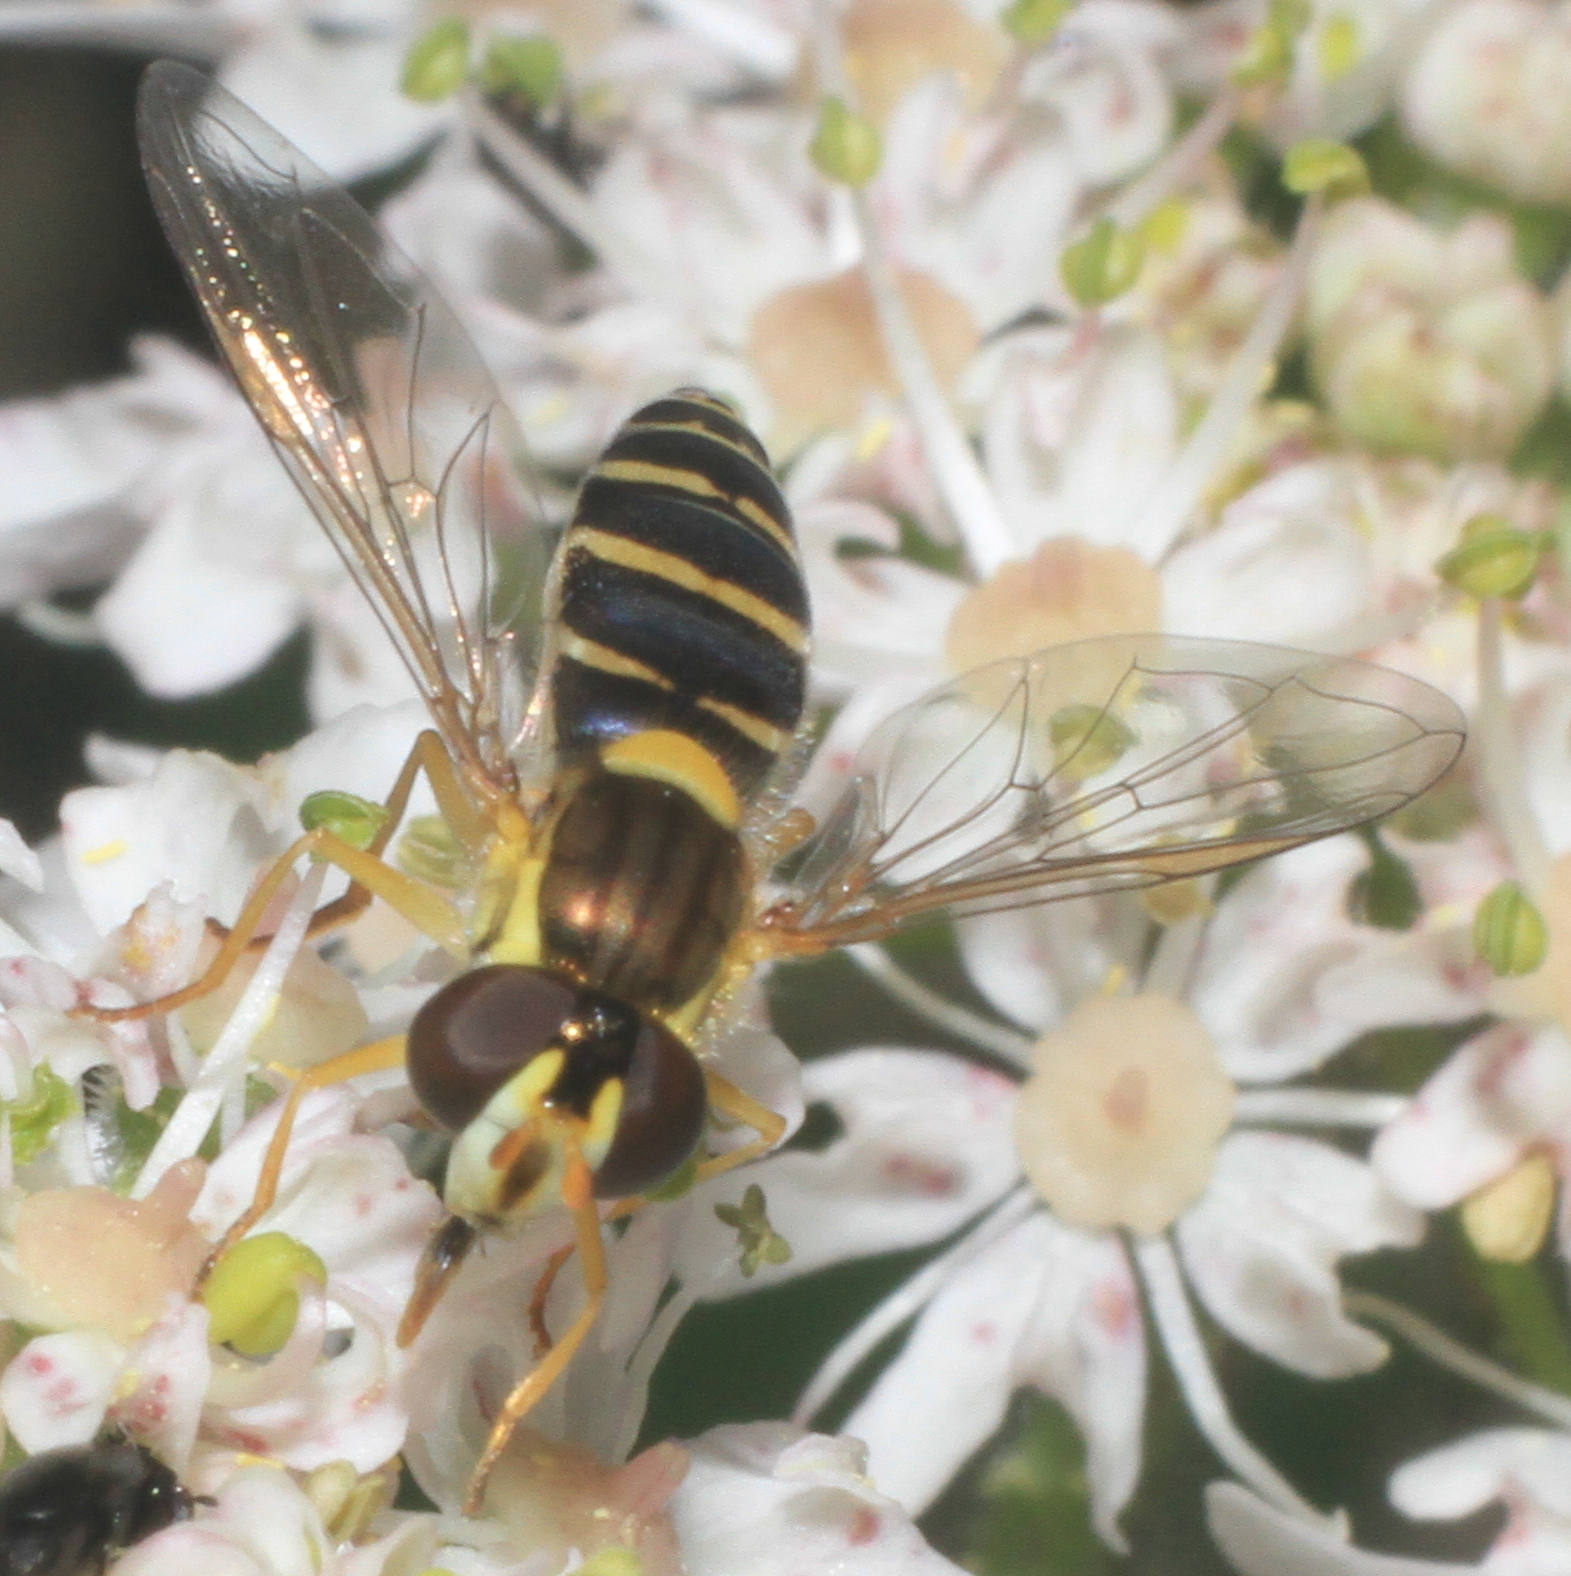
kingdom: Animalia
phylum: Arthropoda
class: Insecta
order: Diptera
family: Syrphidae
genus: Sphaerophoria
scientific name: Sphaerophoria
